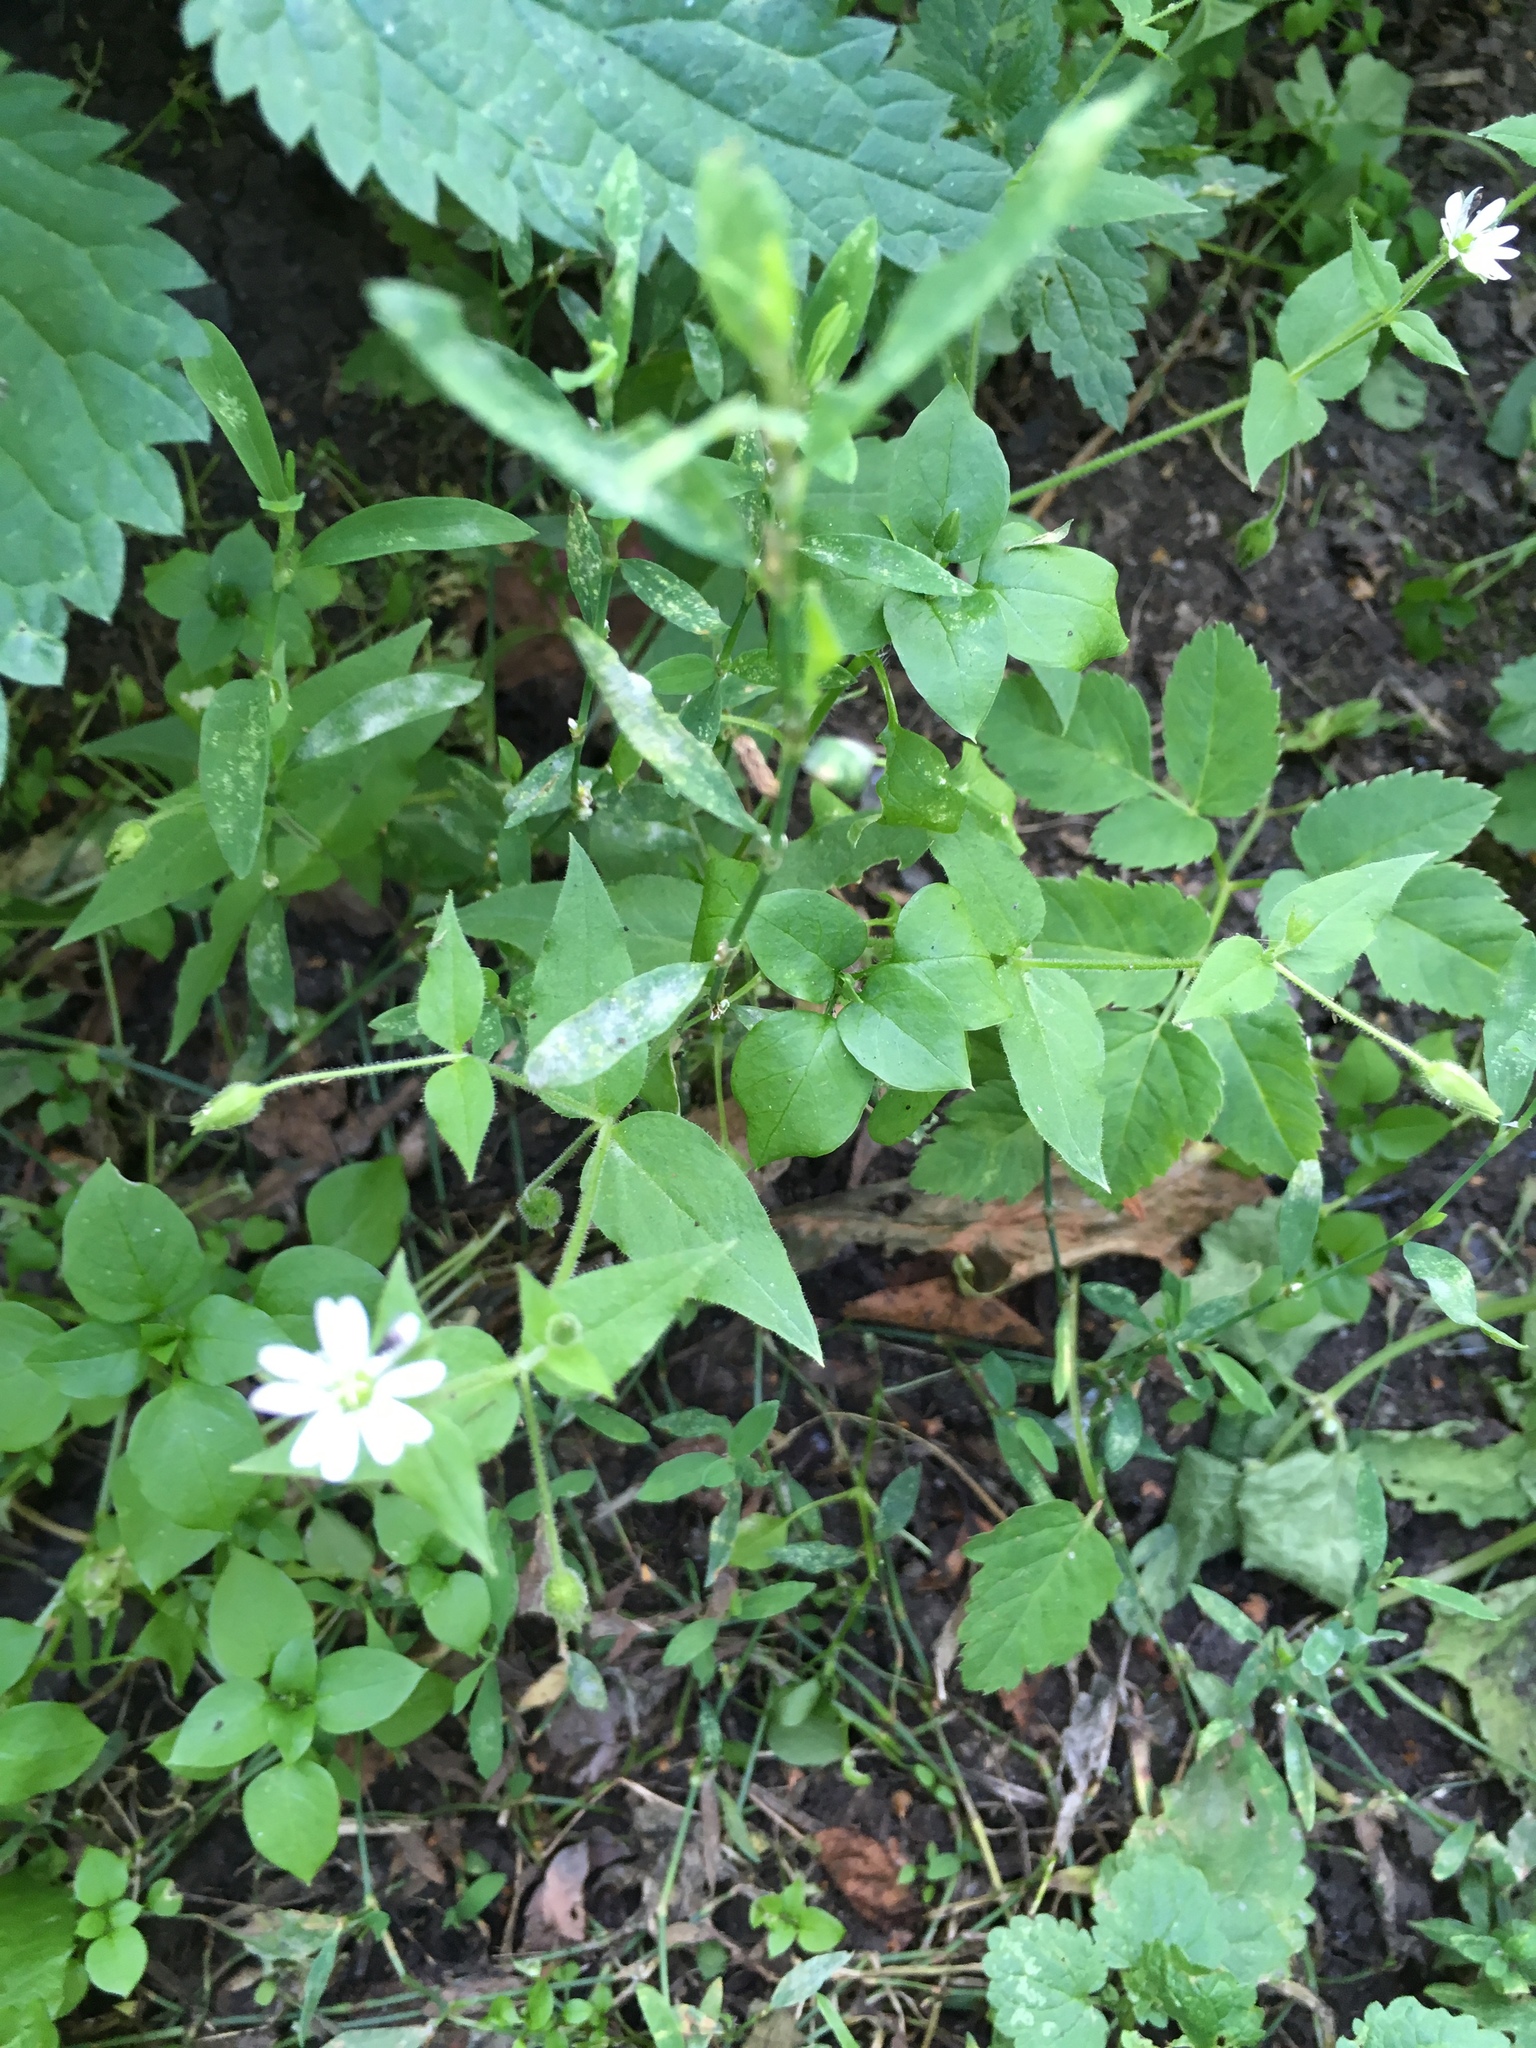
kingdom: Plantae
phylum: Tracheophyta
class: Magnoliopsida
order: Caryophyllales
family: Caryophyllaceae
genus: Stellaria
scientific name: Stellaria aquatica
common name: Water chickweed
